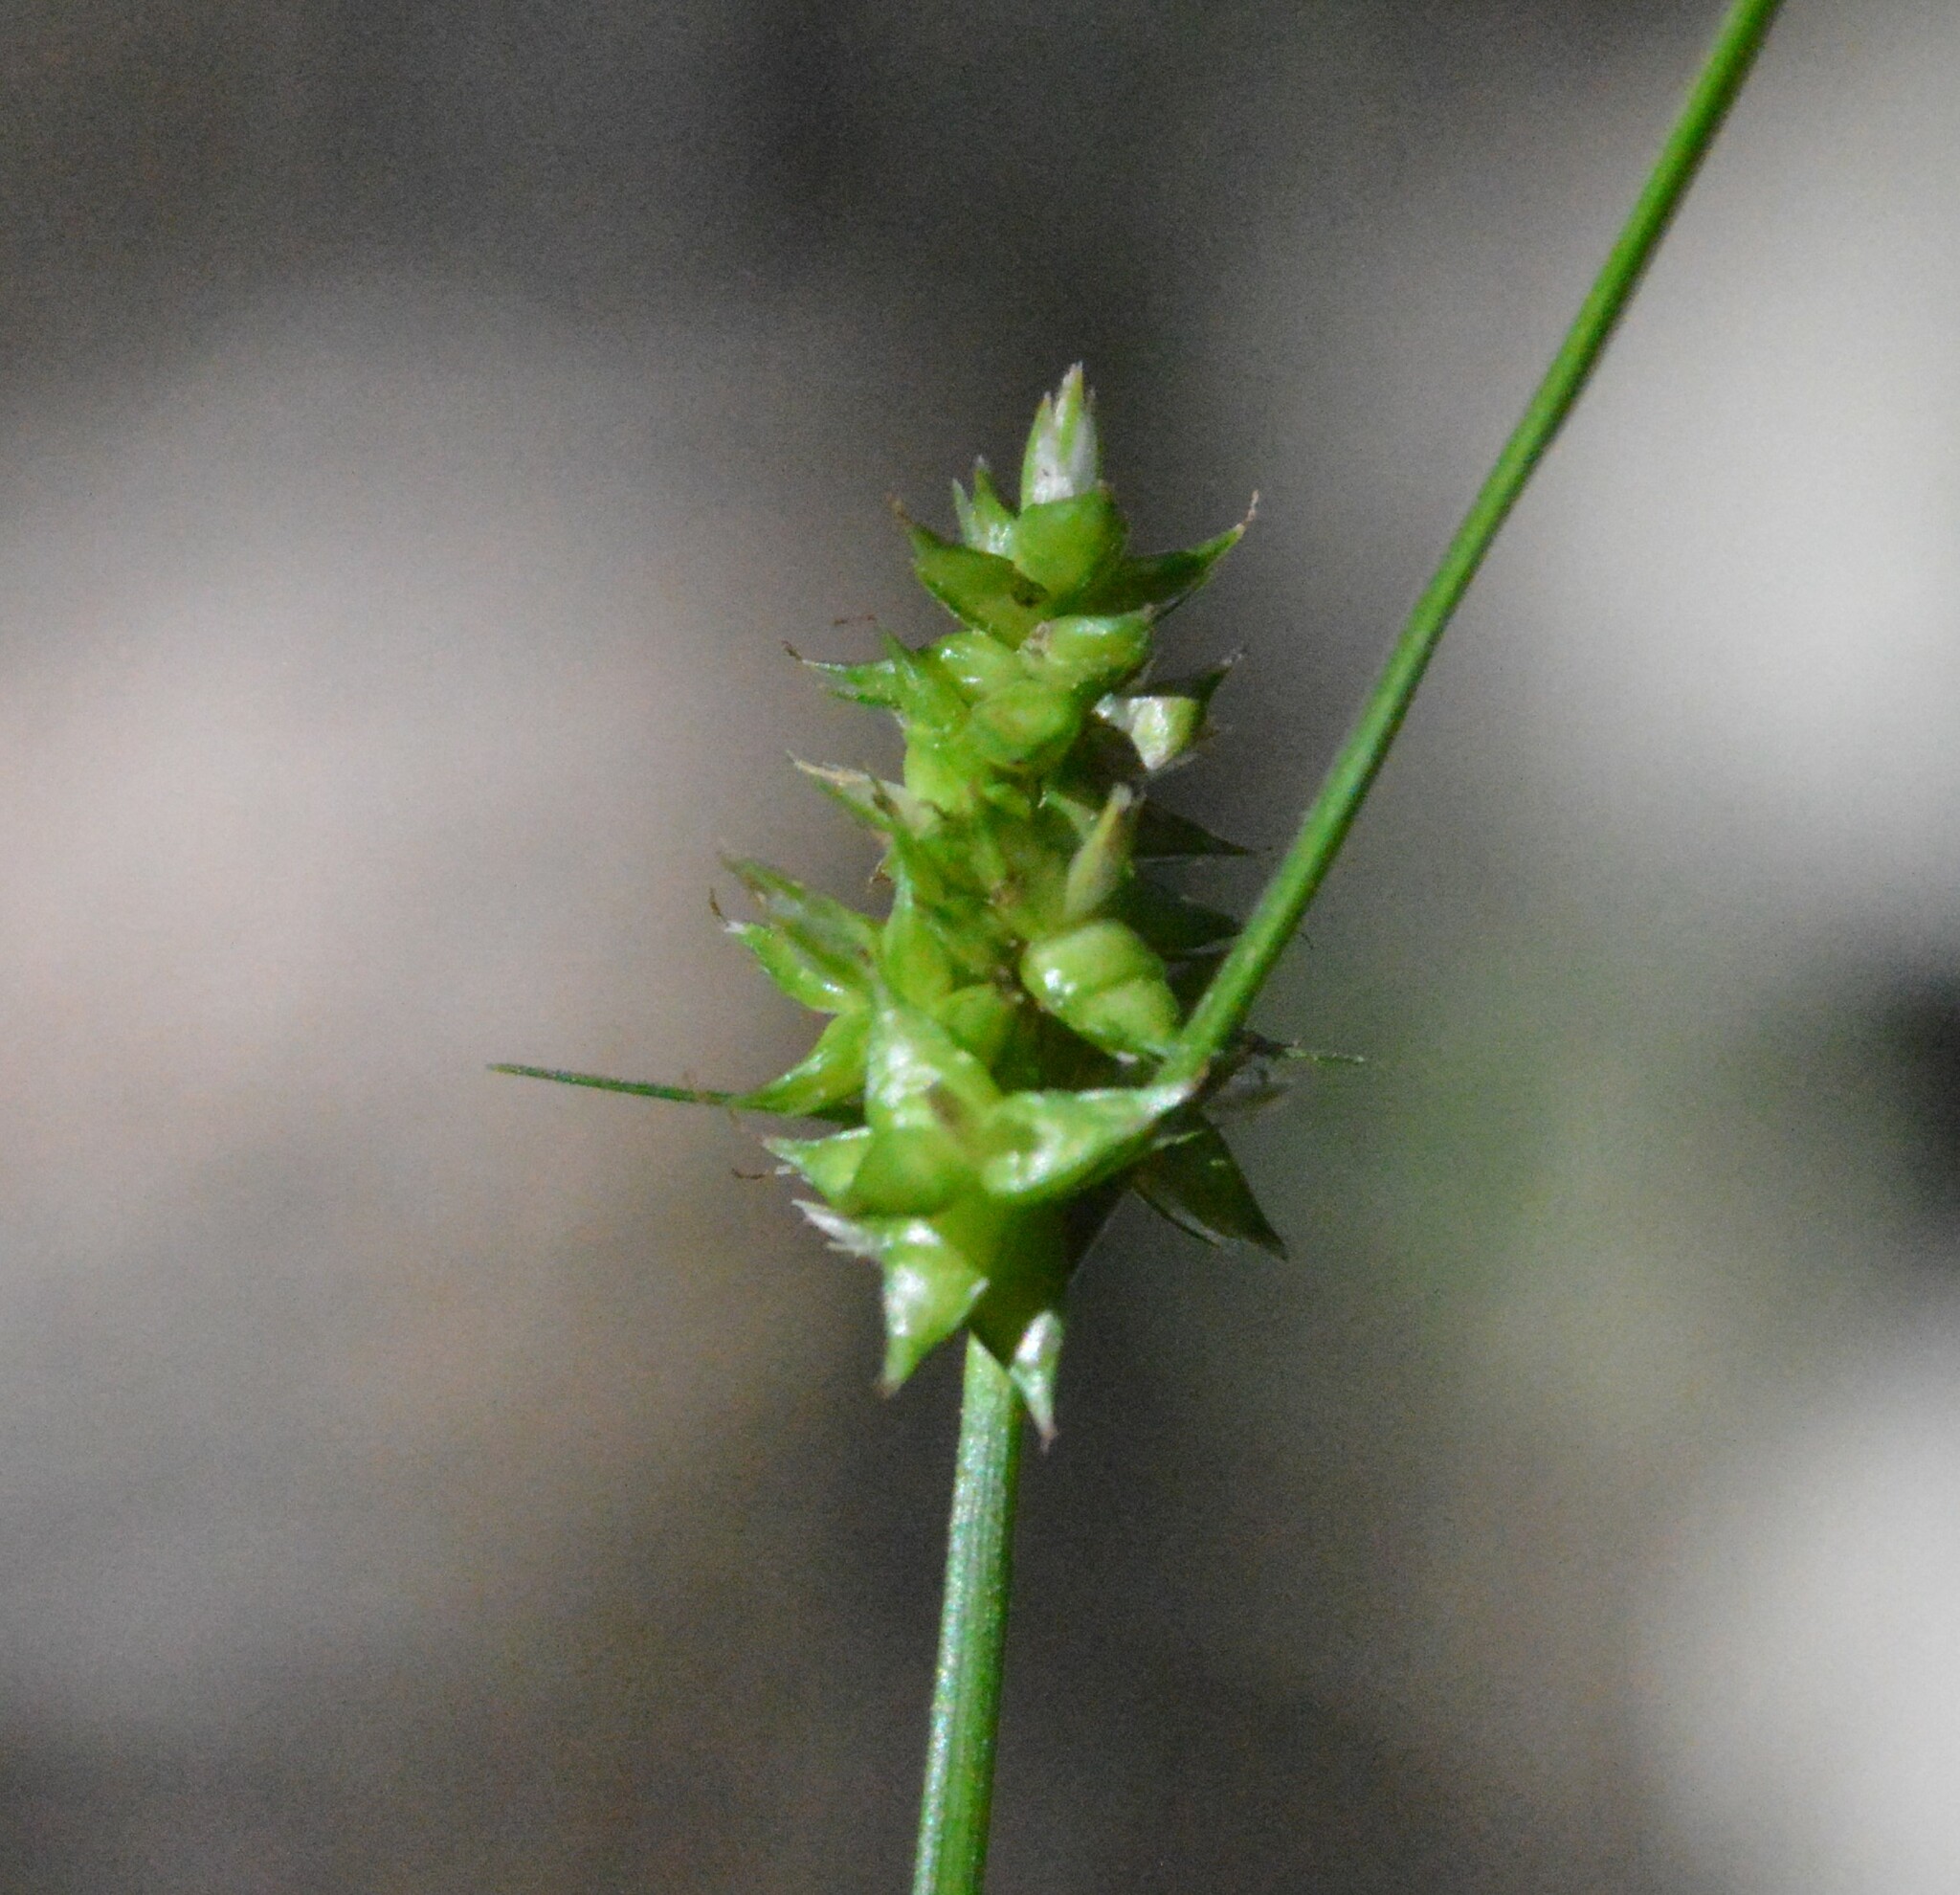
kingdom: Plantae
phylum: Tracheophyta
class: Liliopsida
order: Poales
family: Cyperaceae
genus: Carex
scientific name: Carex retroflexa
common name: Reflexed sedge
